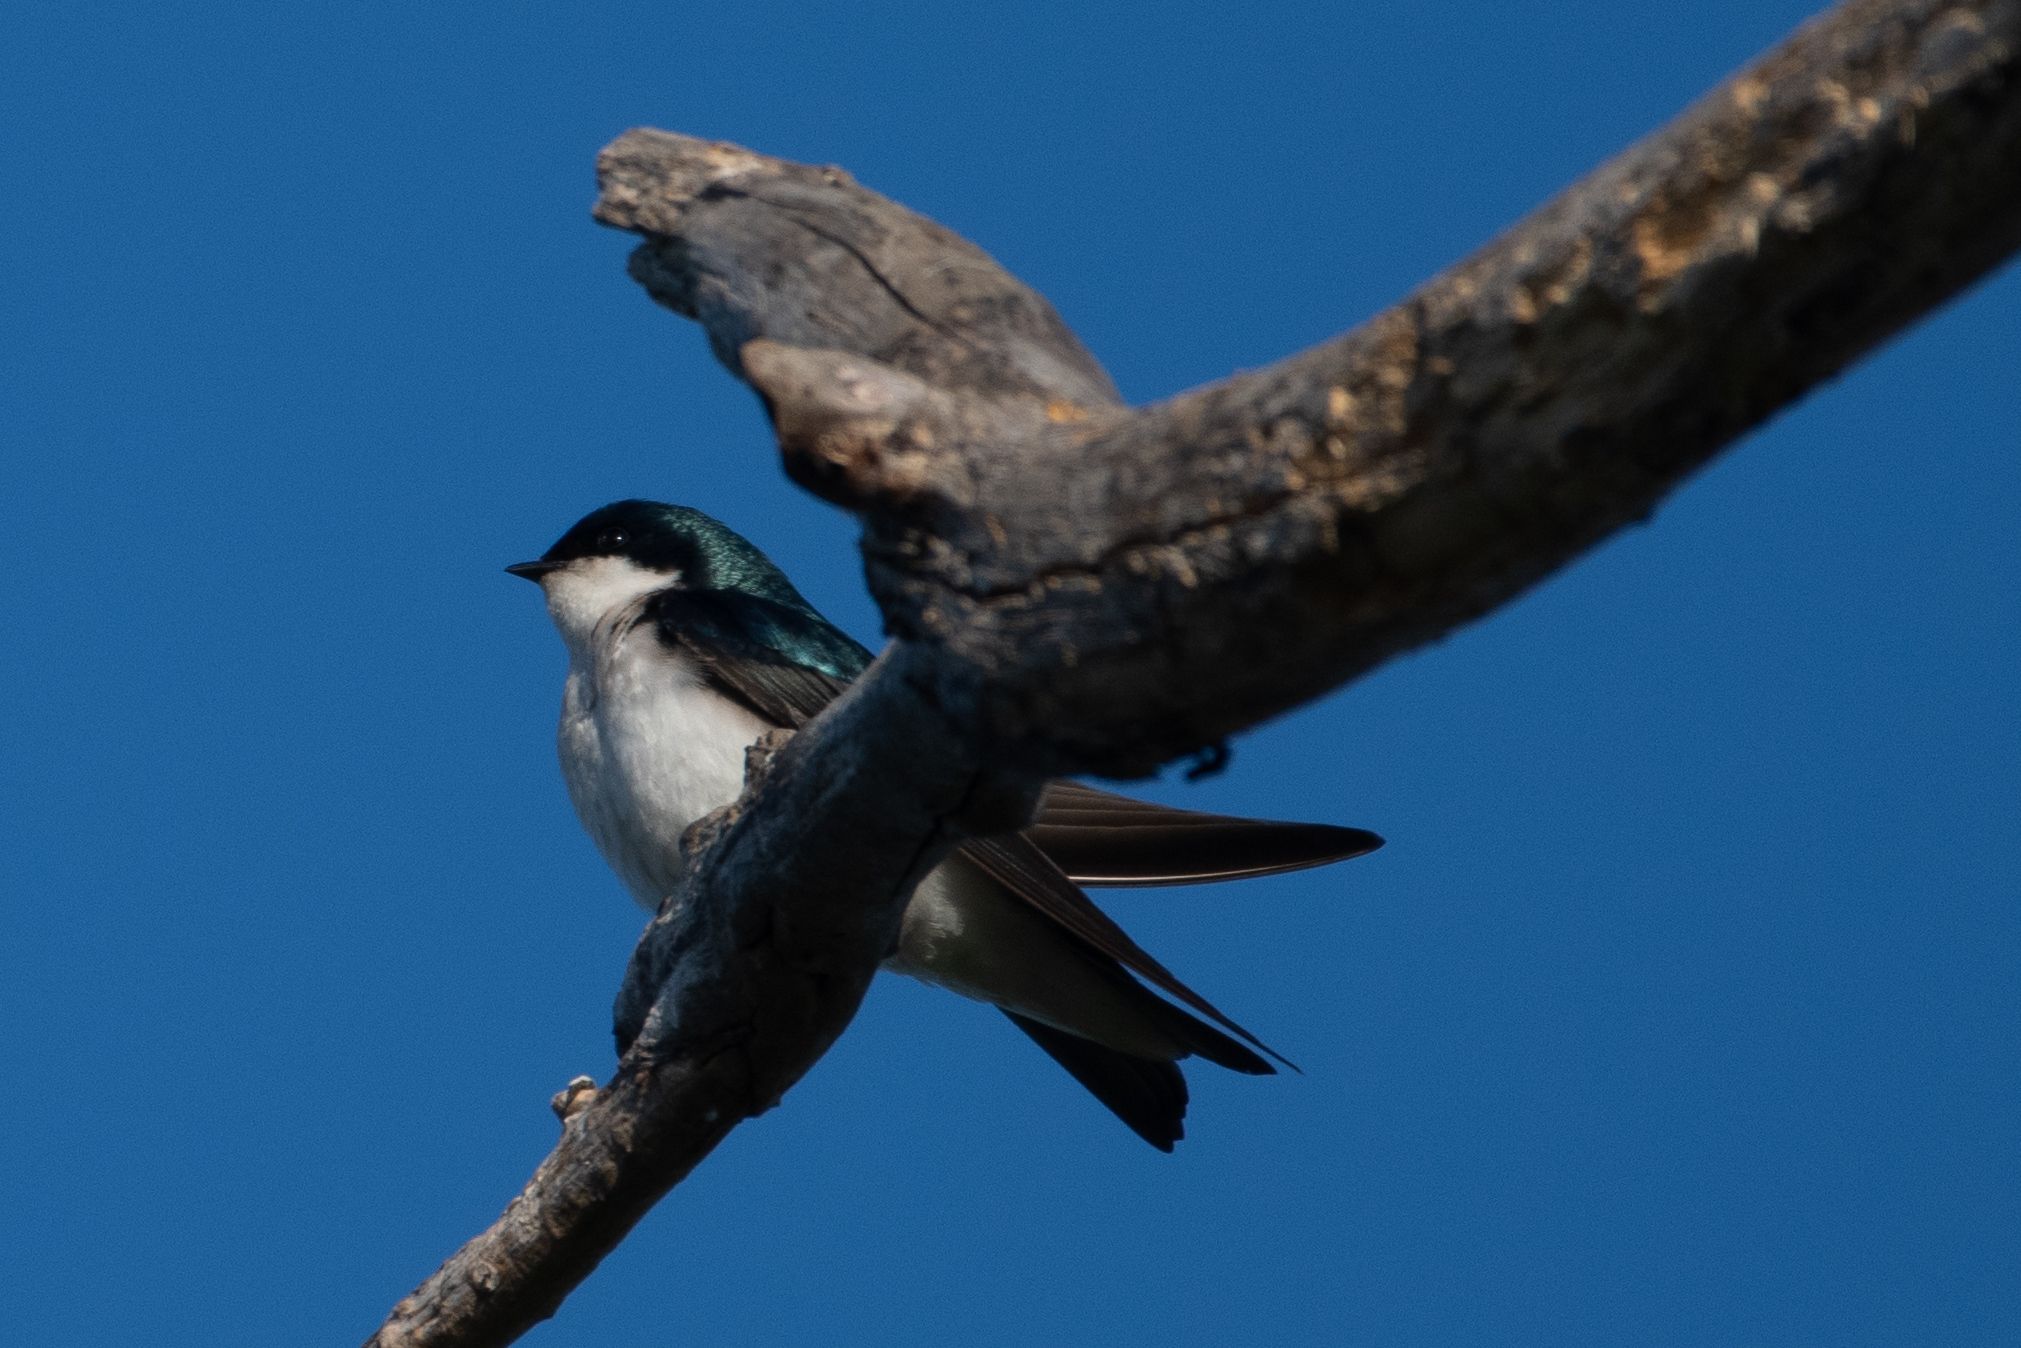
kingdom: Animalia
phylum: Chordata
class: Aves
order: Passeriformes
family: Hirundinidae
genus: Tachycineta
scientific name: Tachycineta bicolor
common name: Tree swallow
